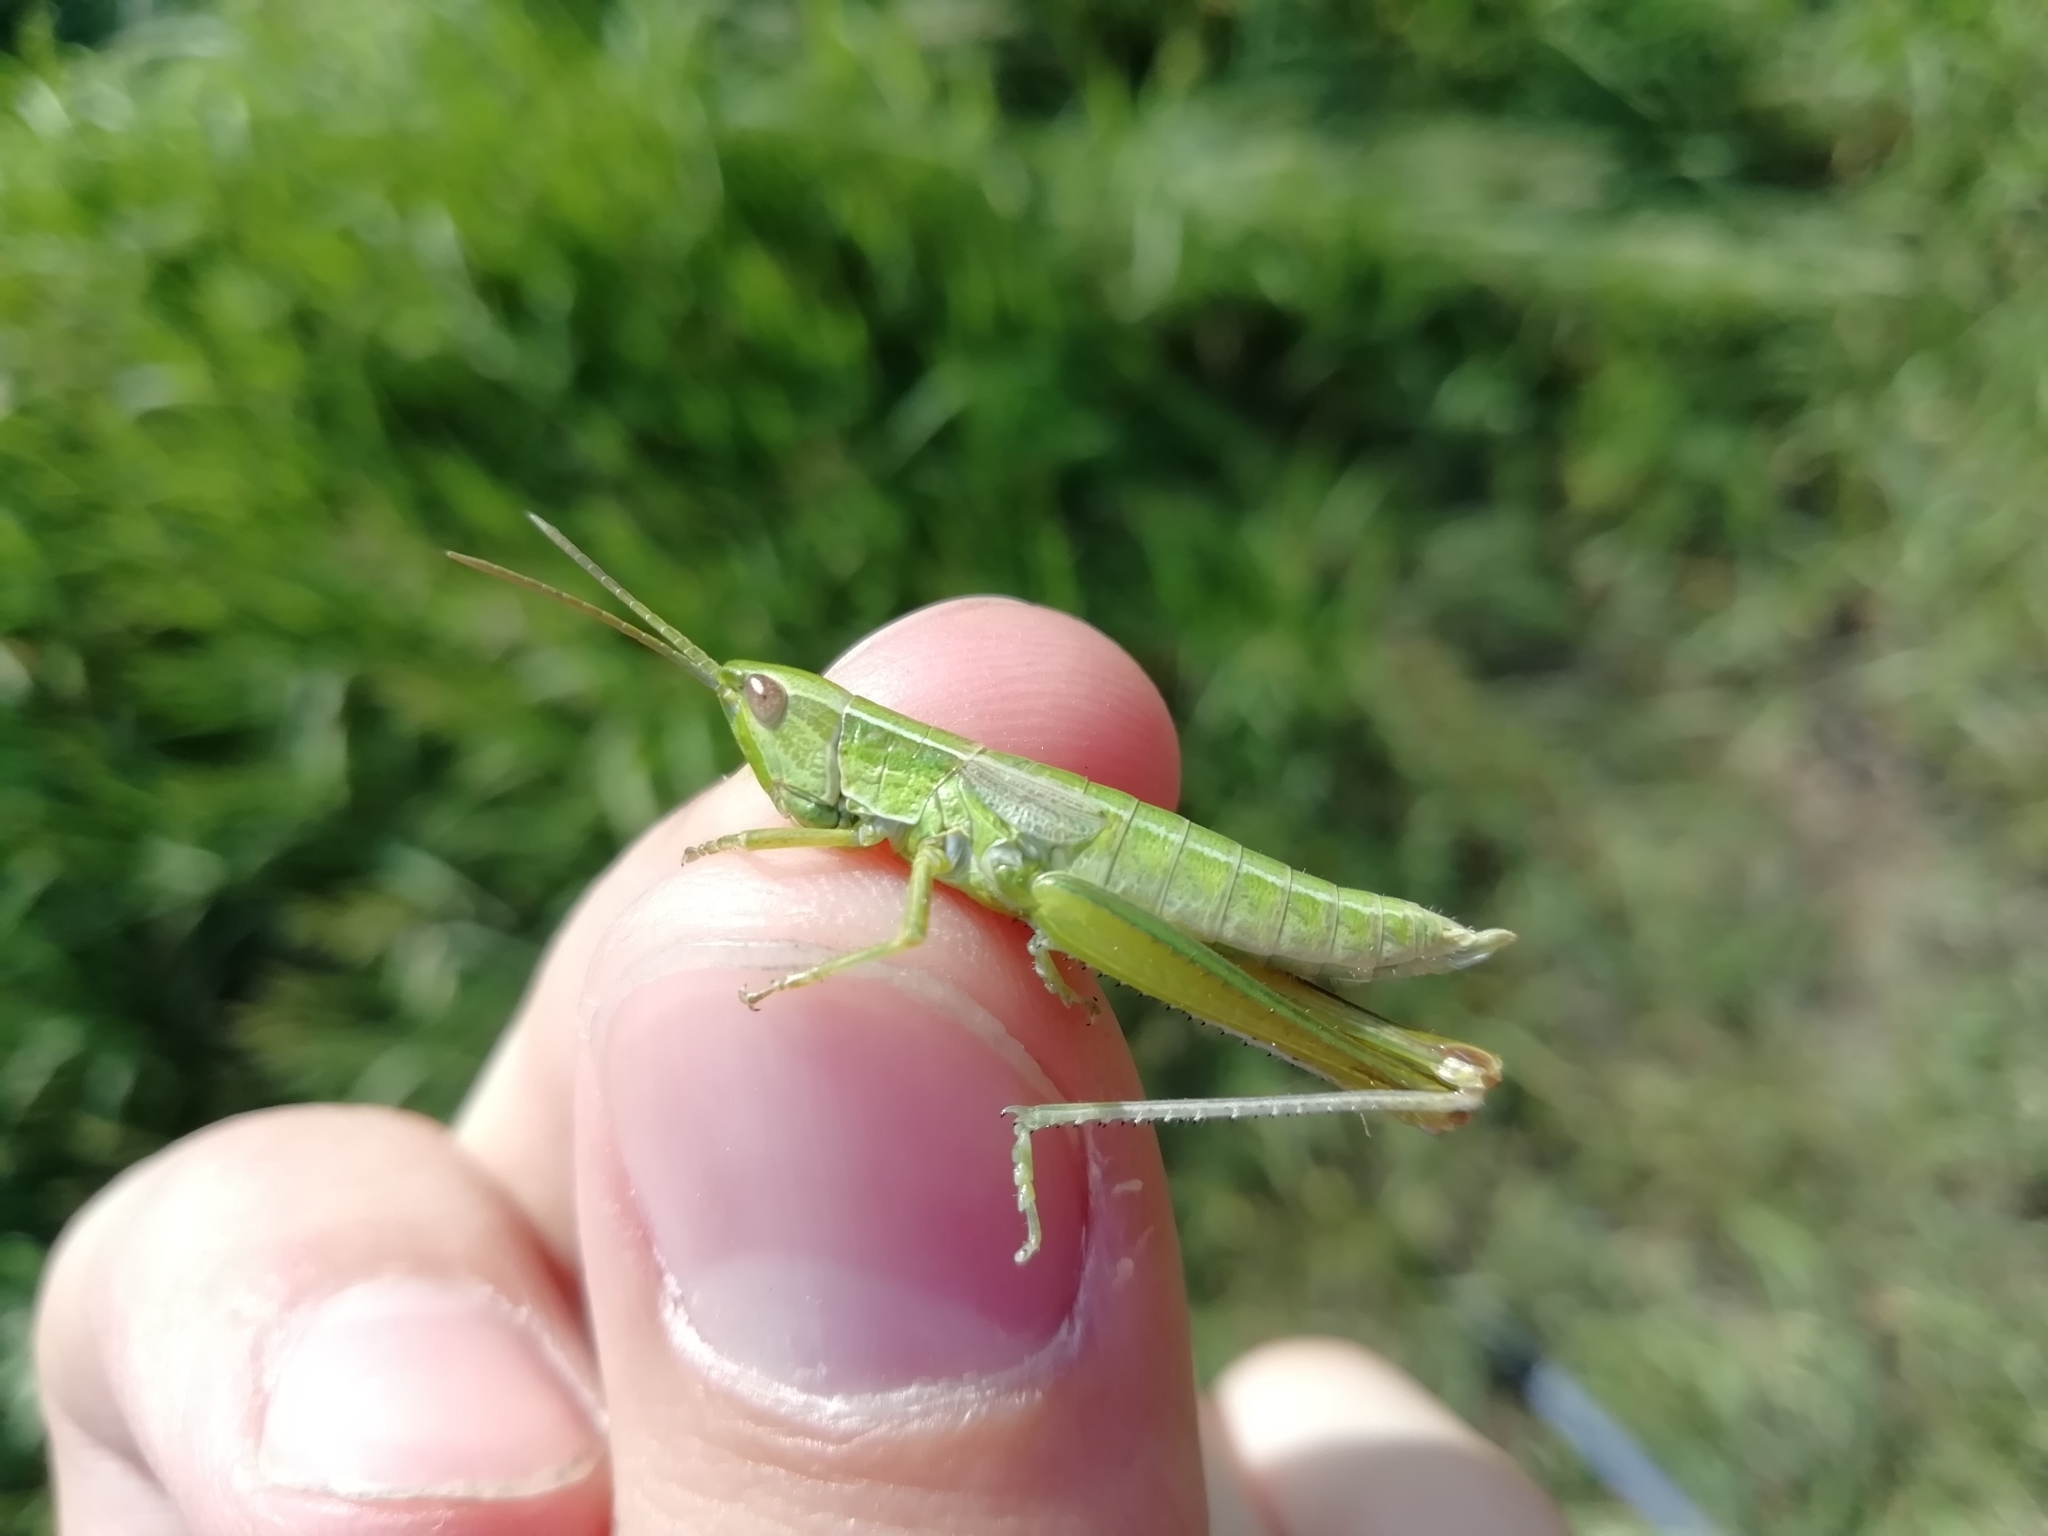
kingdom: Animalia
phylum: Arthropoda
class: Insecta
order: Orthoptera
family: Acrididae
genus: Euthystira
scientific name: Euthystira brachyptera
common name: Small gold grasshopper
